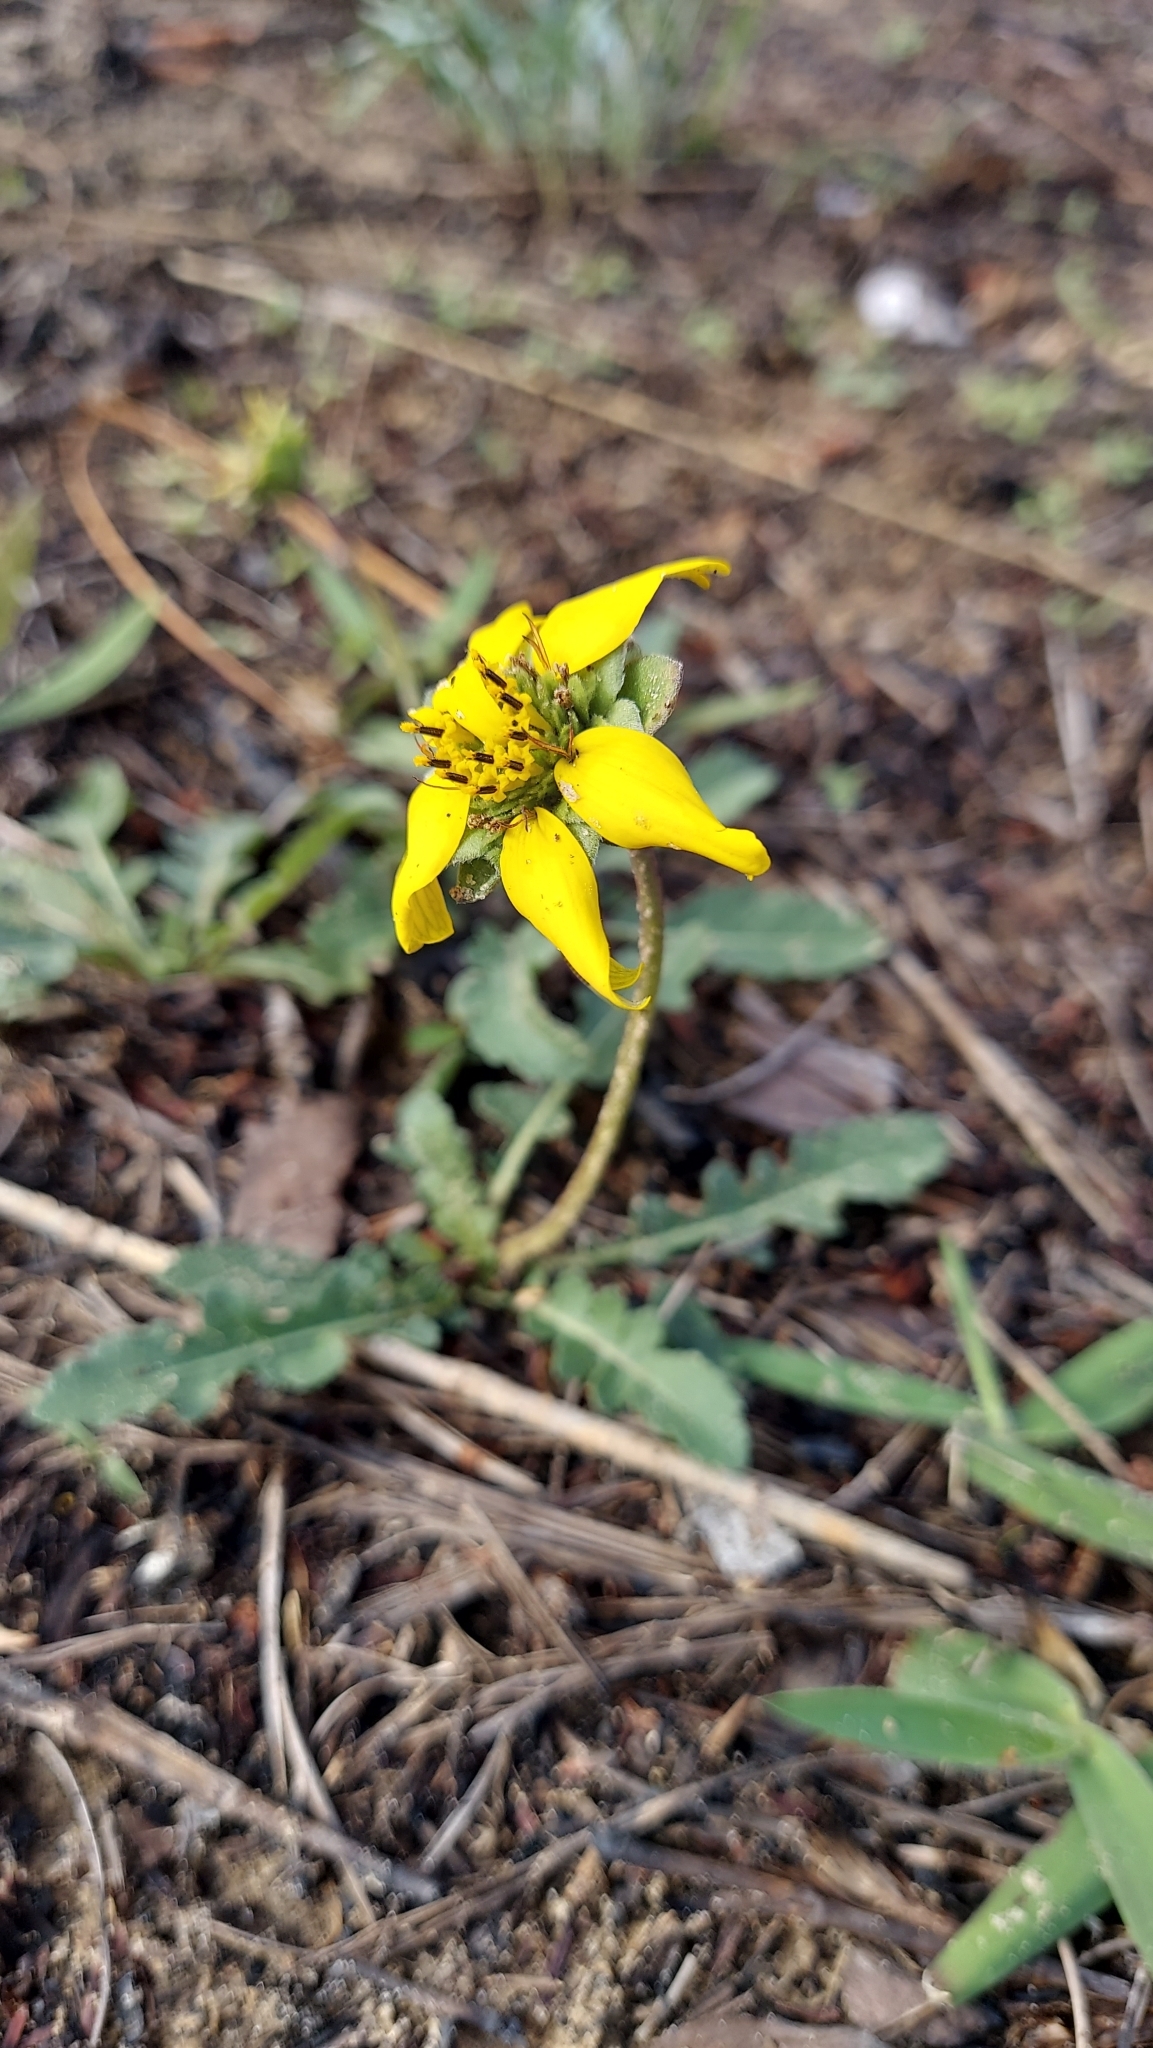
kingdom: Plantae
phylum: Tracheophyta
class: Magnoliopsida
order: Asterales
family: Asteraceae
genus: Berlandiera
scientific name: Berlandiera subacaulis
